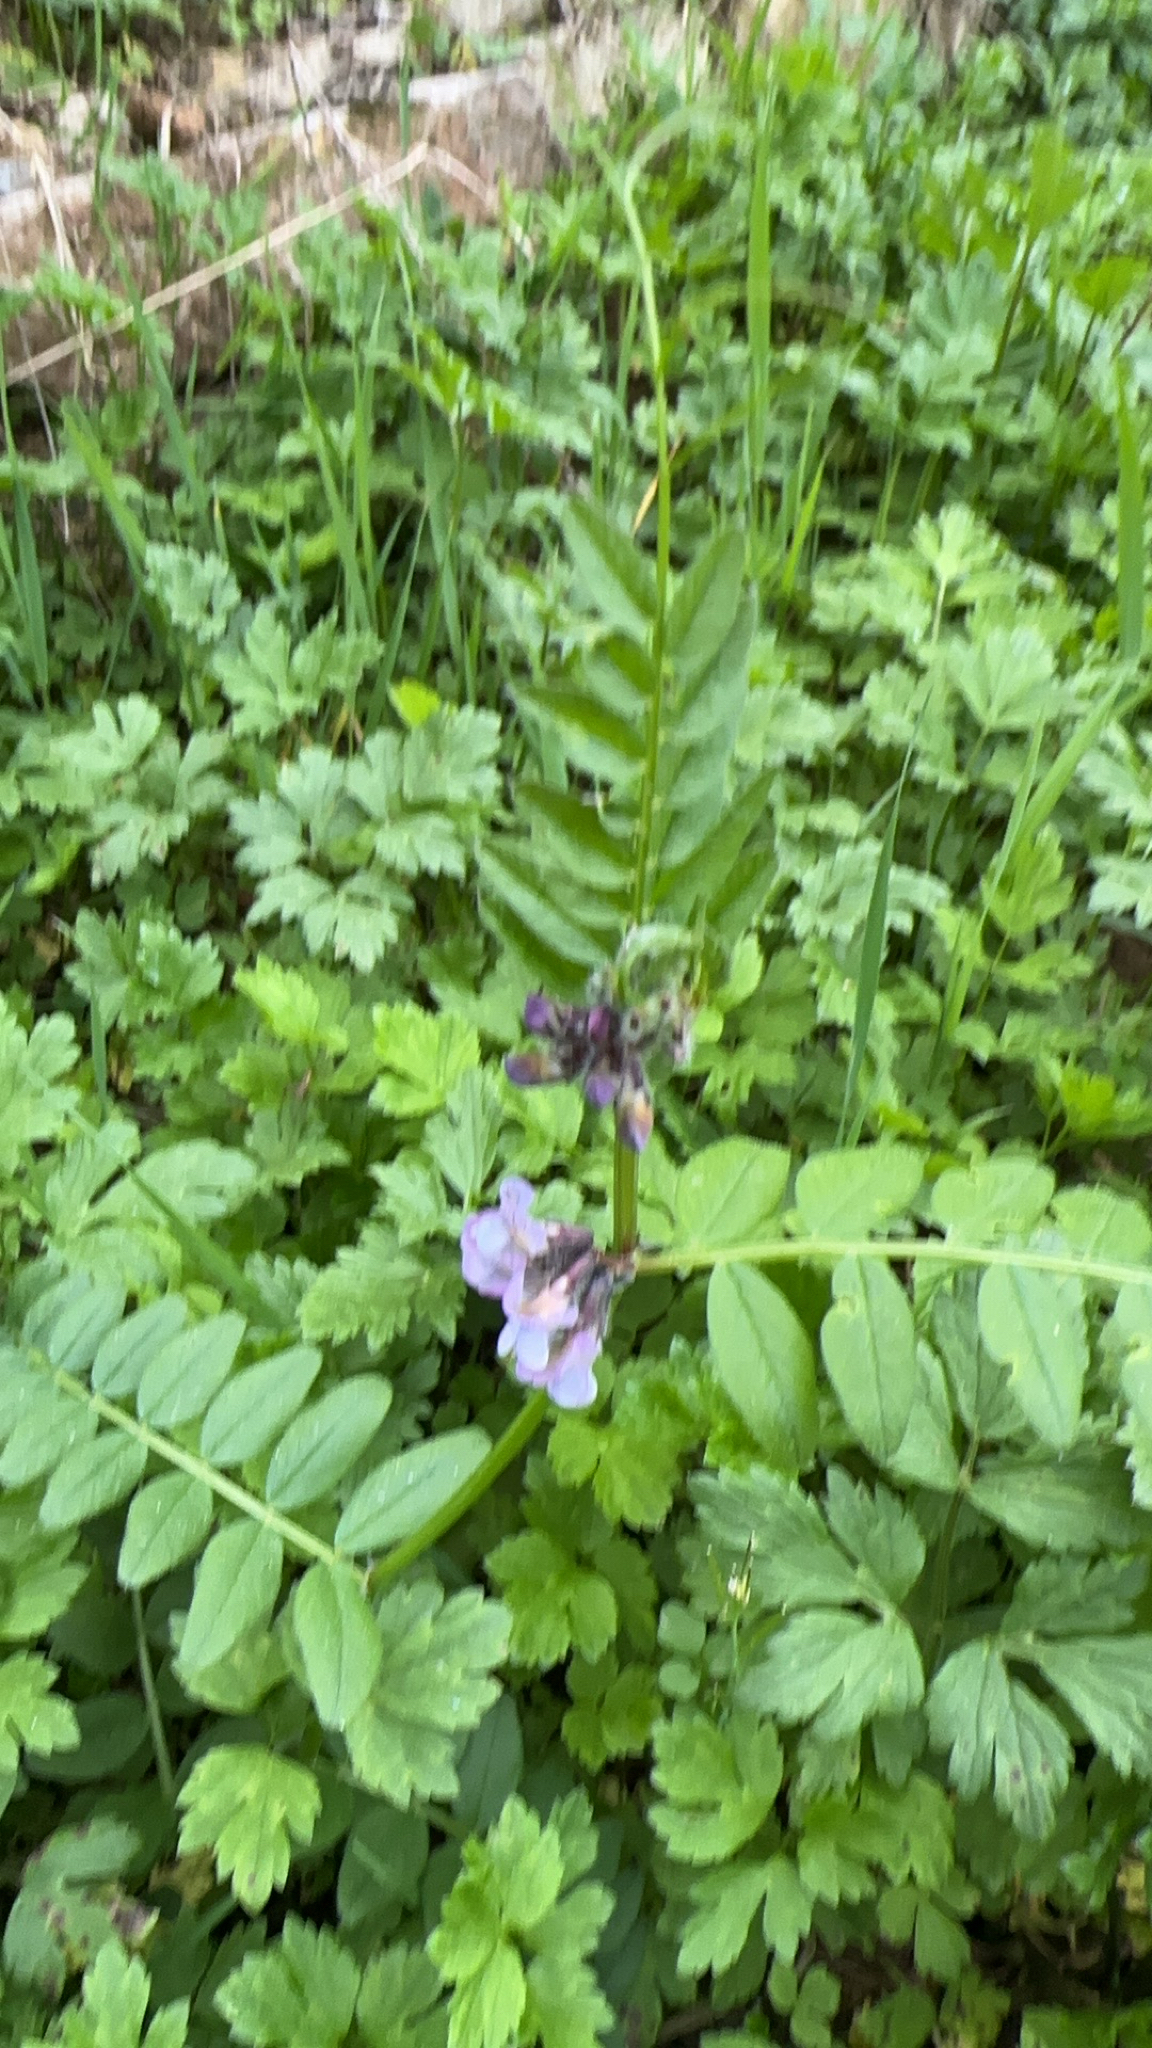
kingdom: Plantae
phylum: Tracheophyta
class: Magnoliopsida
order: Fabales
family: Fabaceae
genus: Vicia
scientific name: Vicia sepium
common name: Bush vetch
